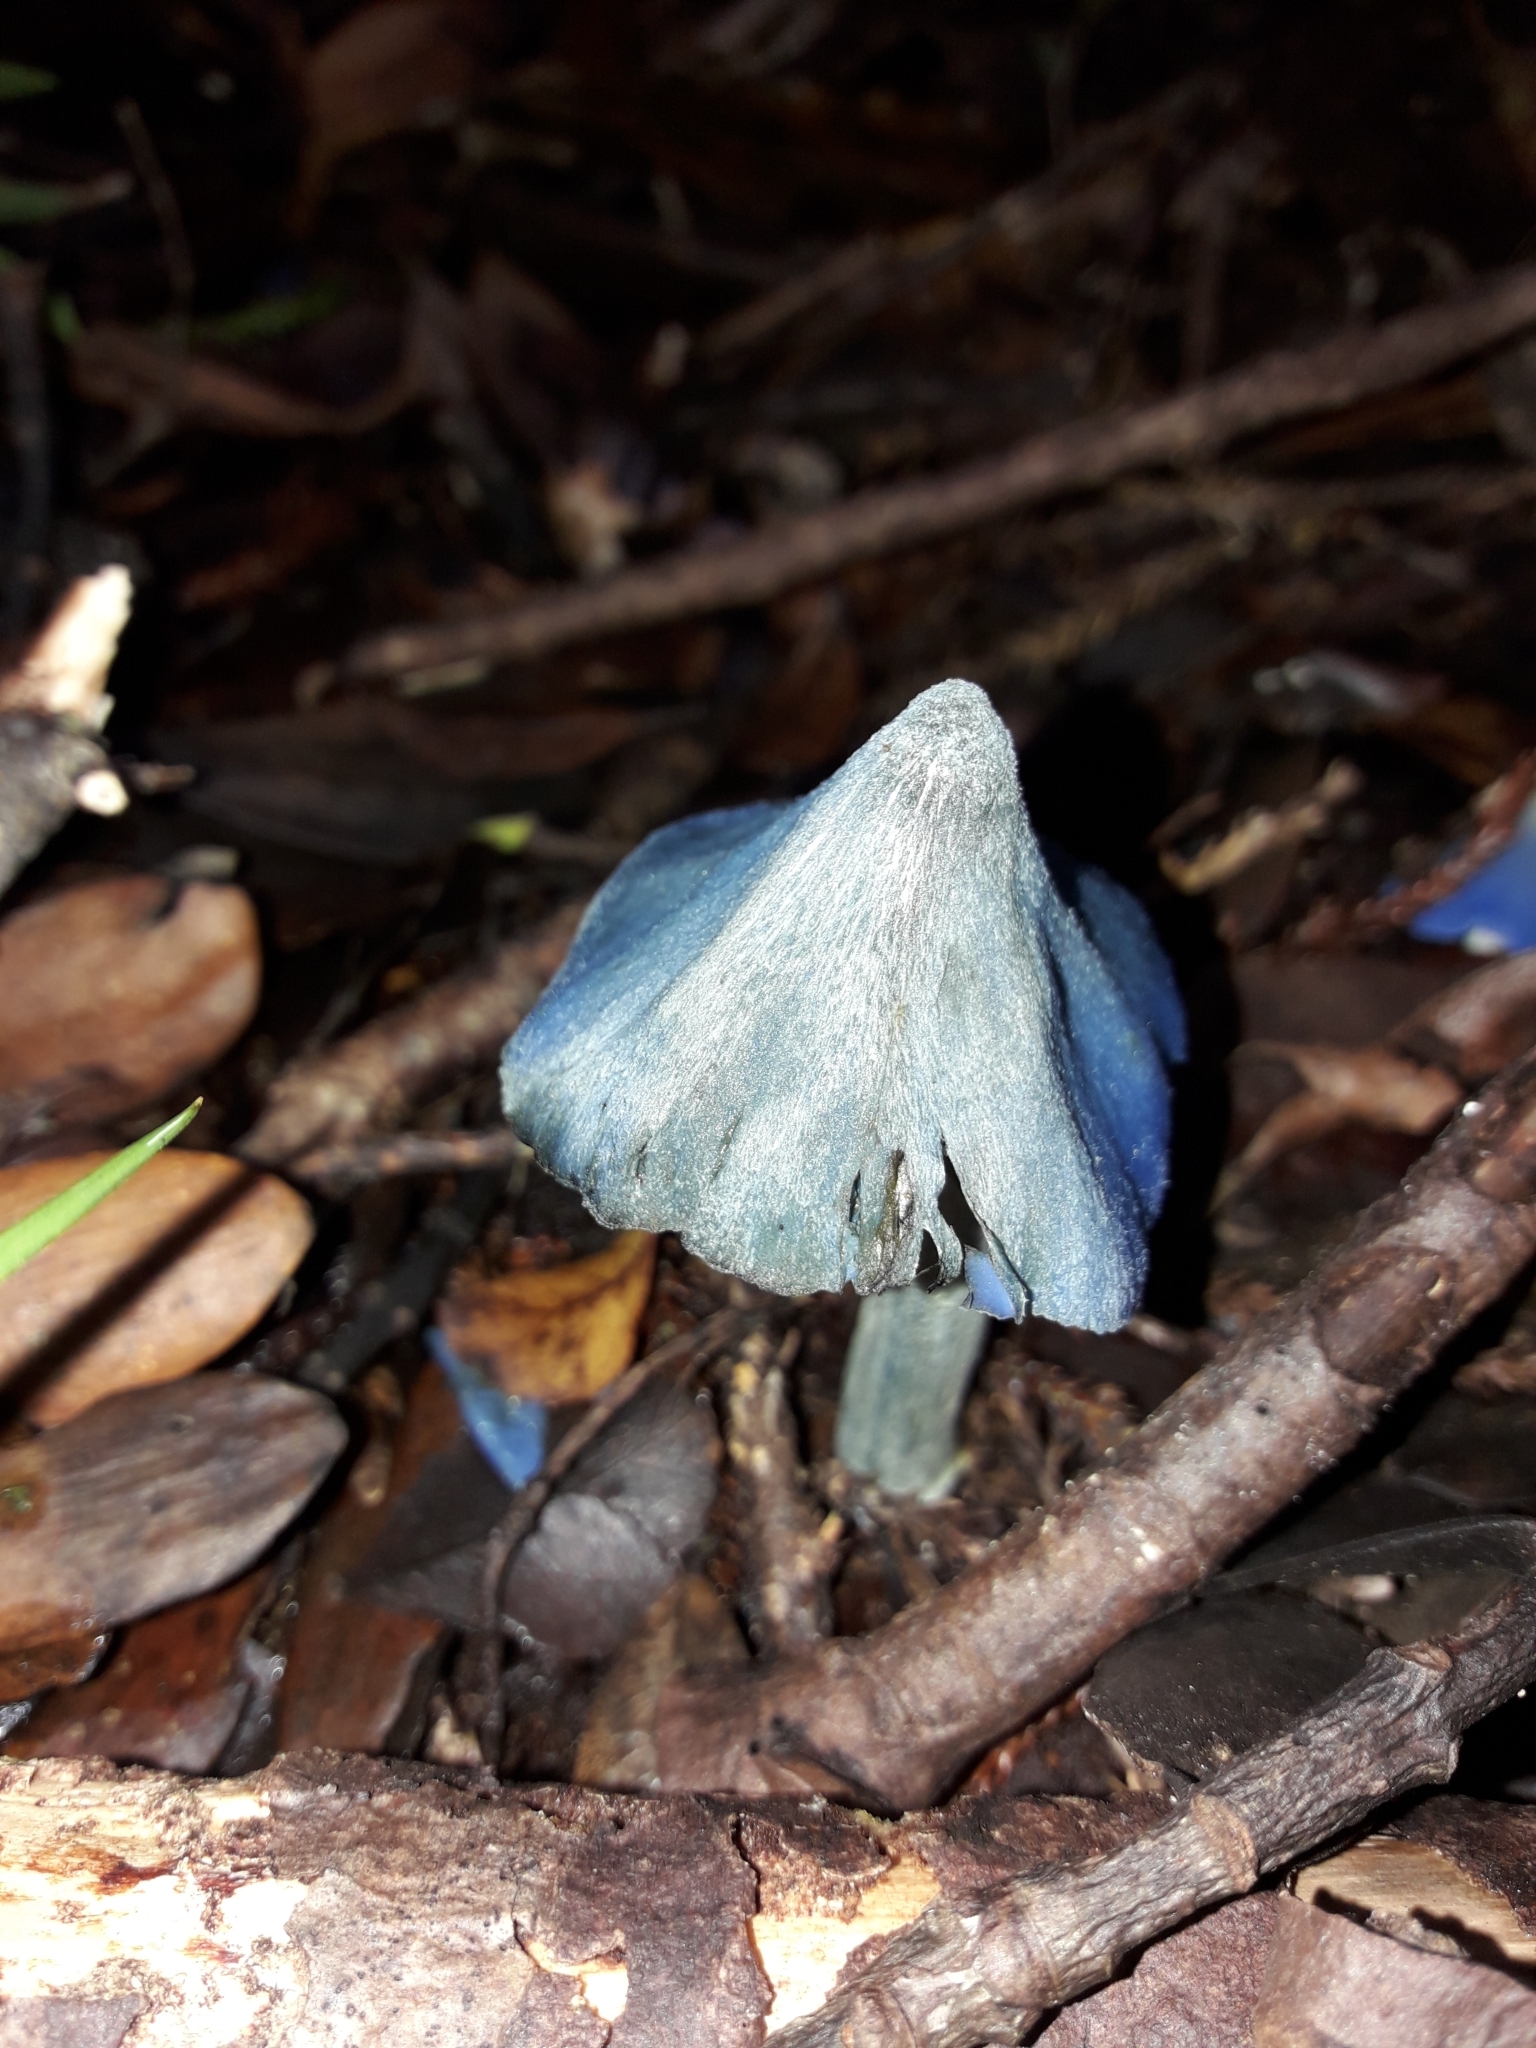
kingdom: Fungi
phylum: Basidiomycota
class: Agaricomycetes
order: Agaricales
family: Entolomataceae
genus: Entoloma
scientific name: Entoloma hochstetteri
